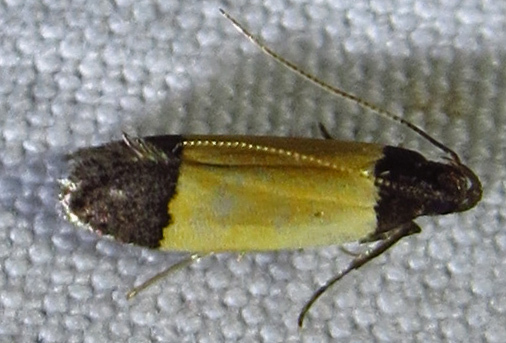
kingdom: Animalia
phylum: Arthropoda
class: Insecta
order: Lepidoptera
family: Gelechiidae
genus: Anacampsis
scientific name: Anacampsis coverdalella
